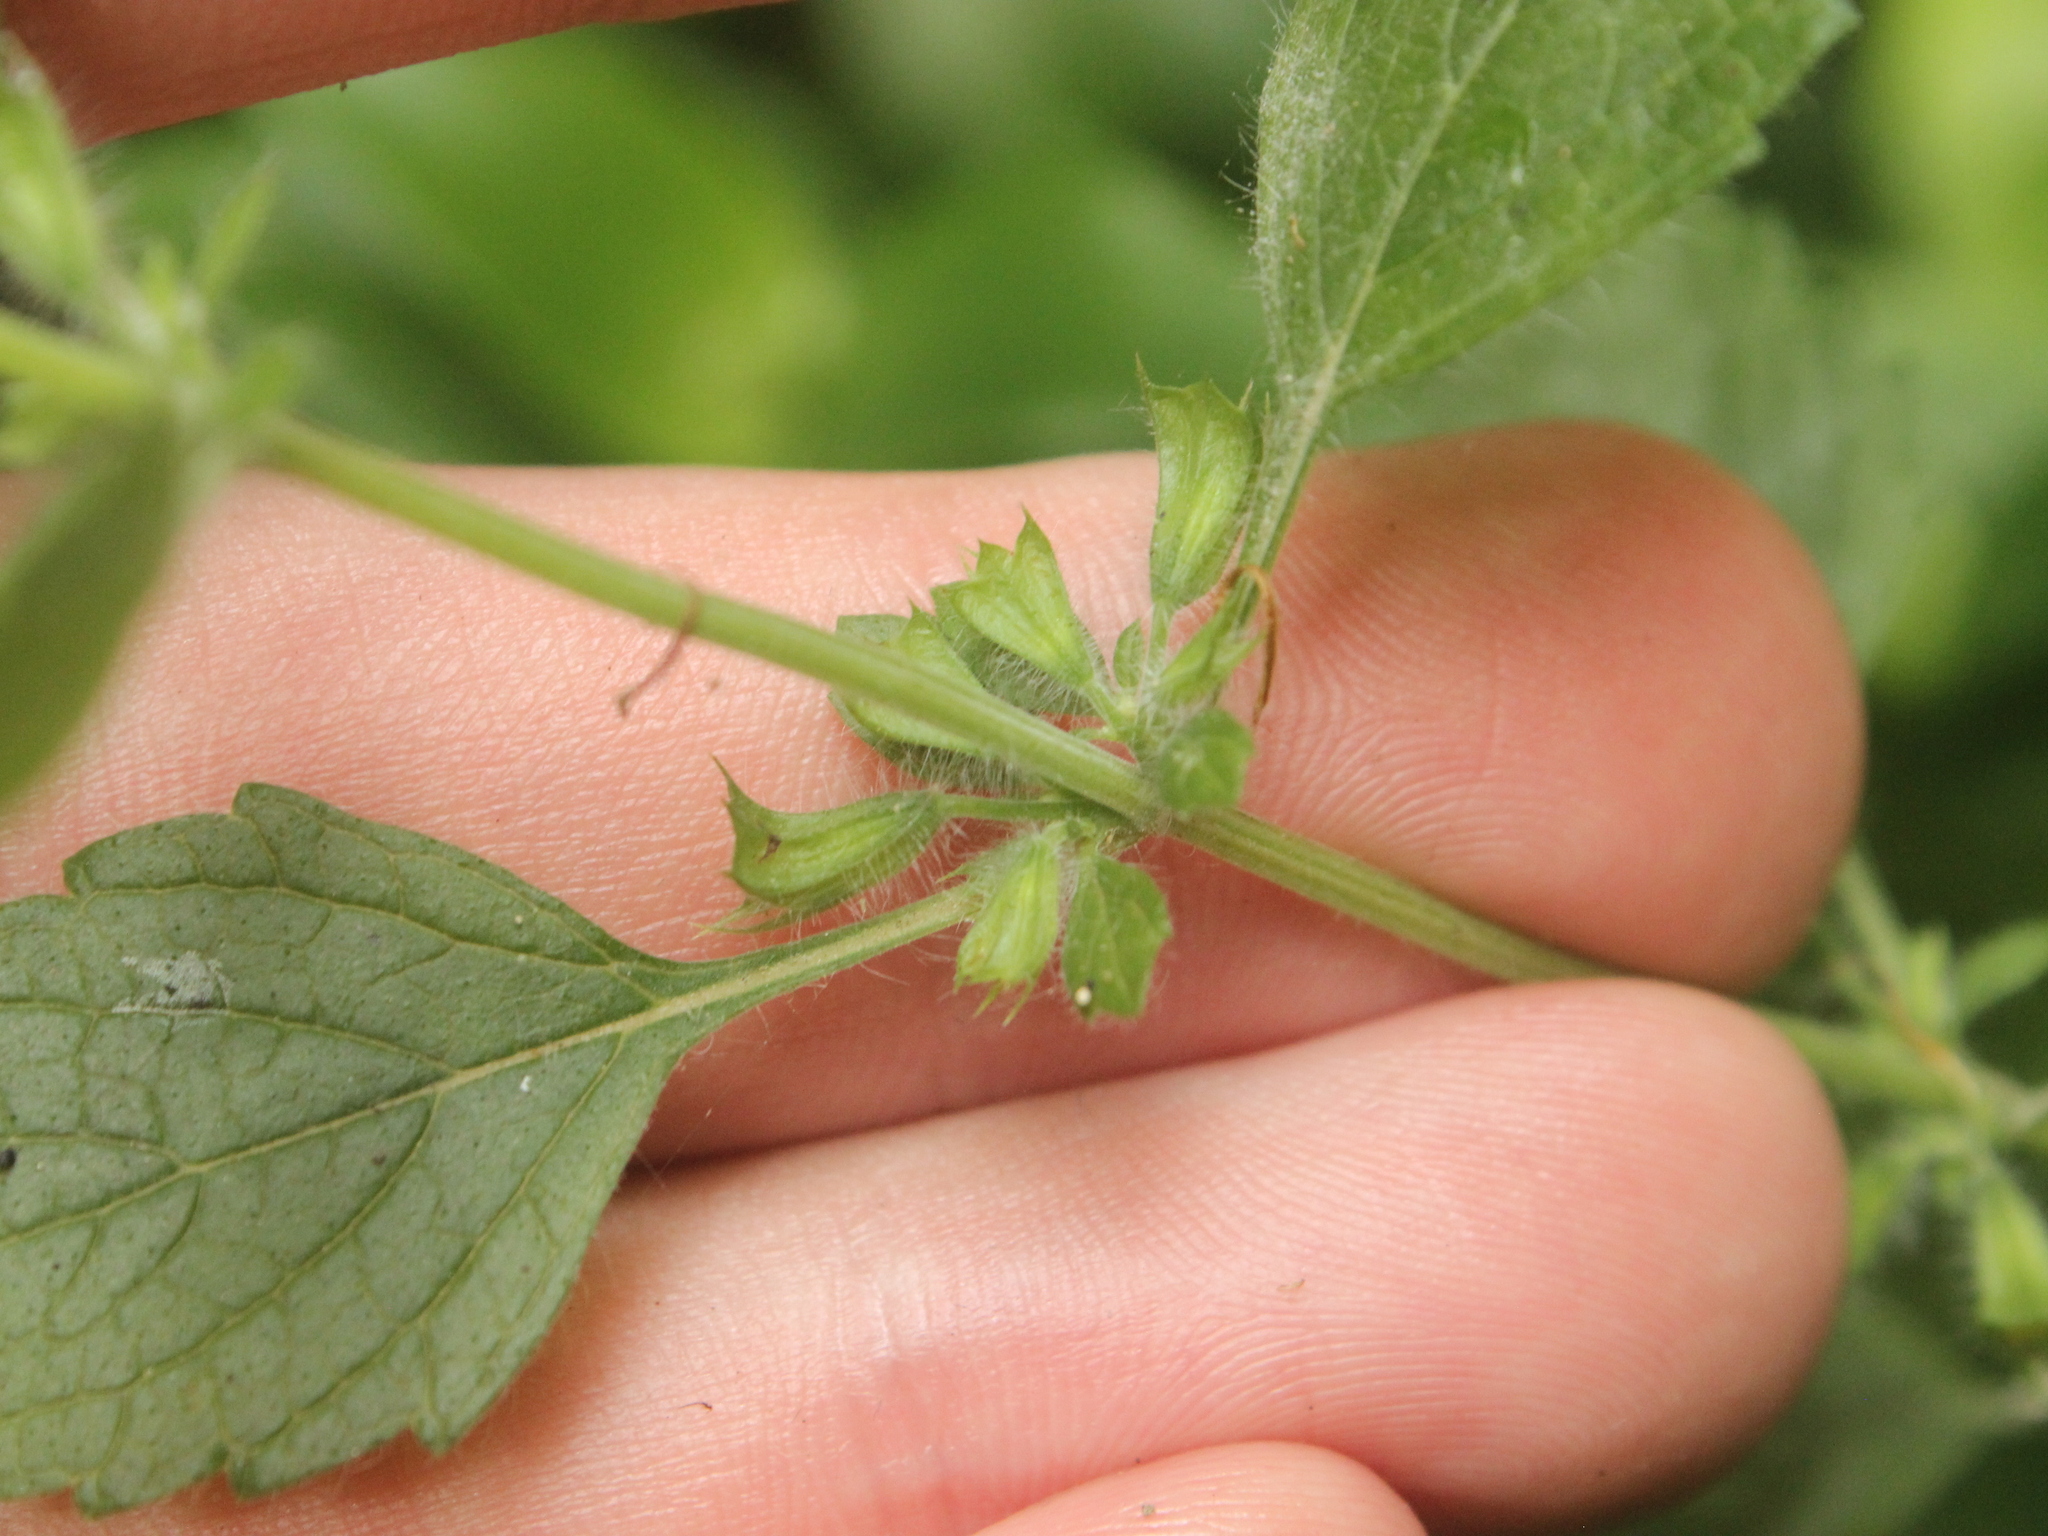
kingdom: Plantae
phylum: Tracheophyta
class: Magnoliopsida
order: Lamiales
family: Lamiaceae
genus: Melissa
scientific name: Melissa officinalis
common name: Balm
